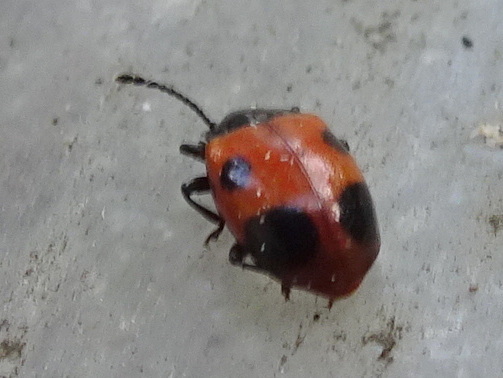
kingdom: Animalia
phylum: Arthropoda
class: Insecta
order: Coleoptera
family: Endomychidae
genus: Endomychus
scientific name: Endomychus biguttatus
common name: Handsome fungus beetle
